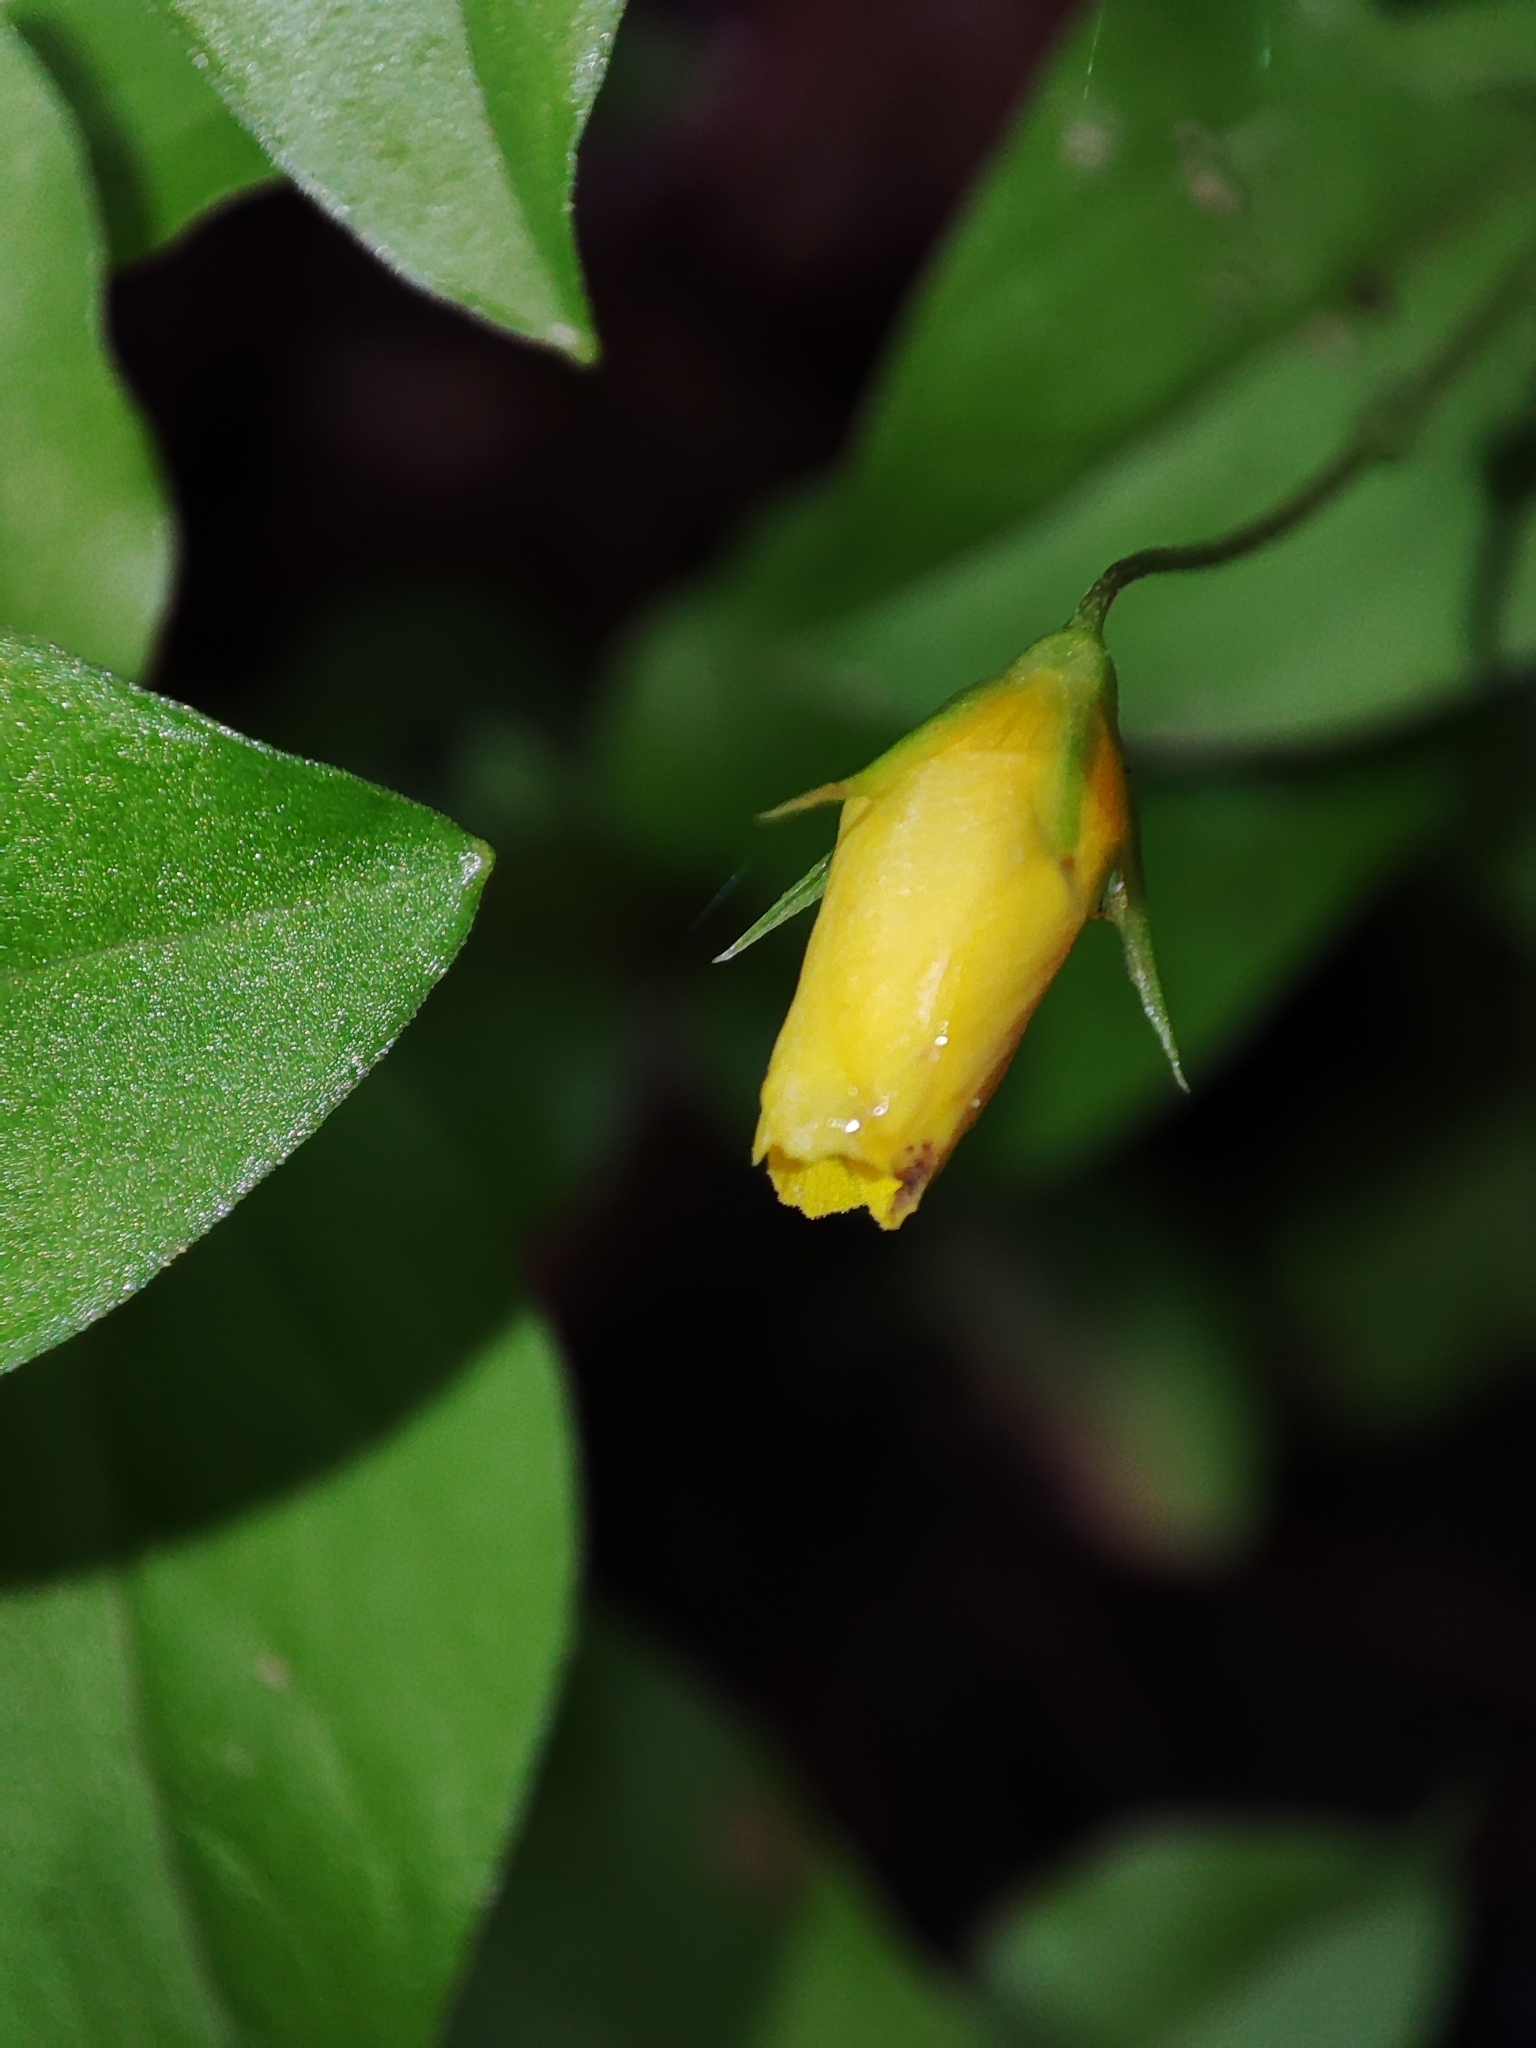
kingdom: Plantae
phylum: Tracheophyta
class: Magnoliopsida
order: Ericales
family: Primulaceae
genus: Lysimachia
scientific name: Lysimachia nemorum
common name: Yellow pimpernel
